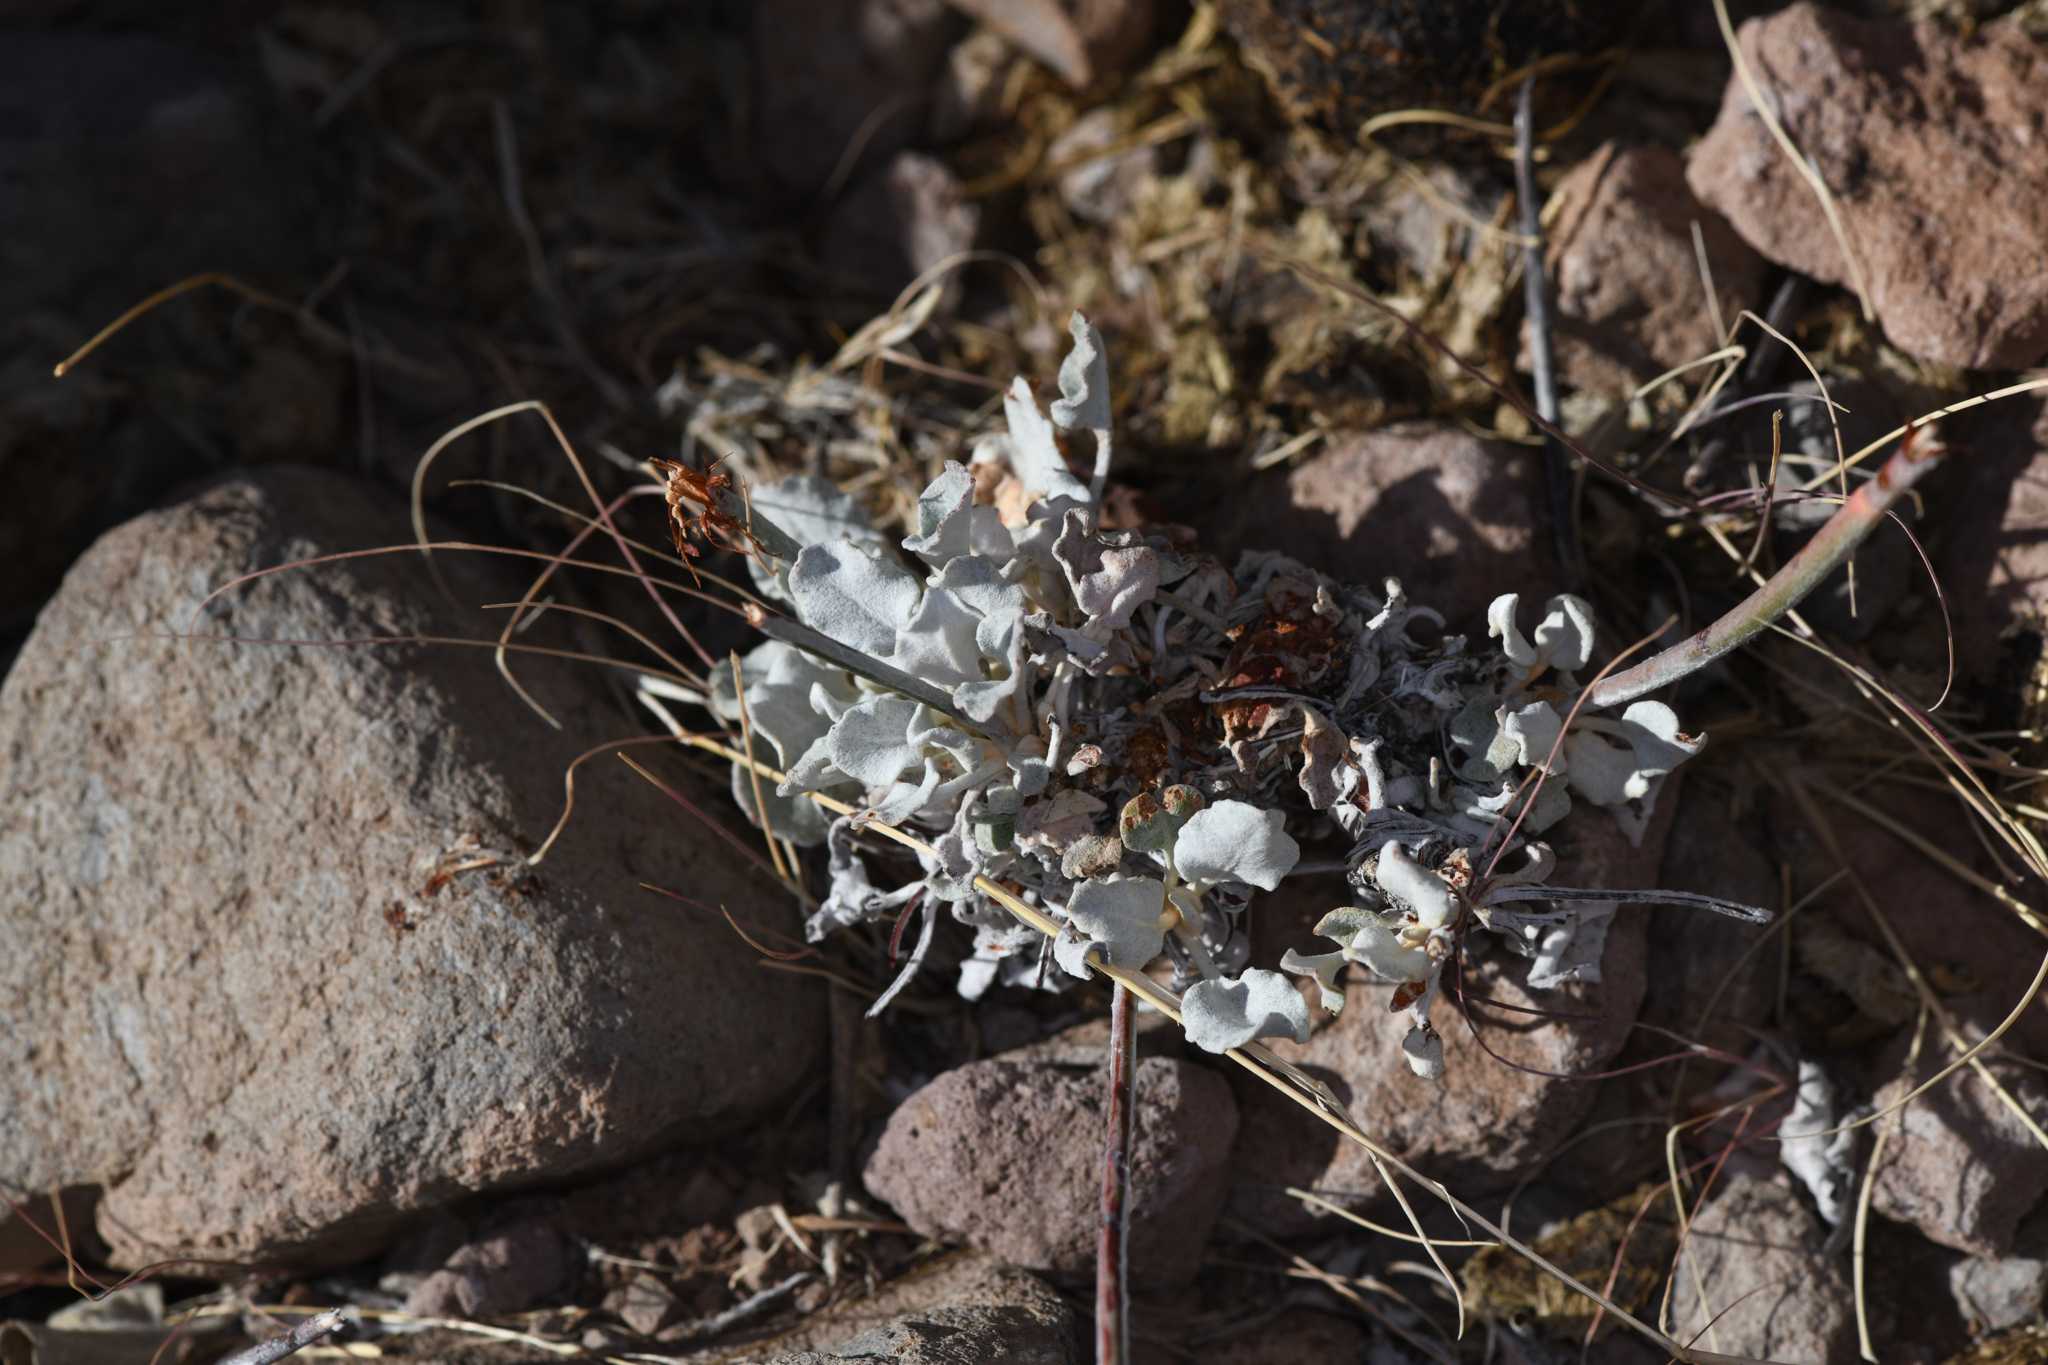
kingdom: Plantae
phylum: Tracheophyta
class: Magnoliopsida
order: Caryophyllales
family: Polygonaceae
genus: Eriogonum
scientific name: Eriogonum elongatum
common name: Long-stem wild buckwheat
